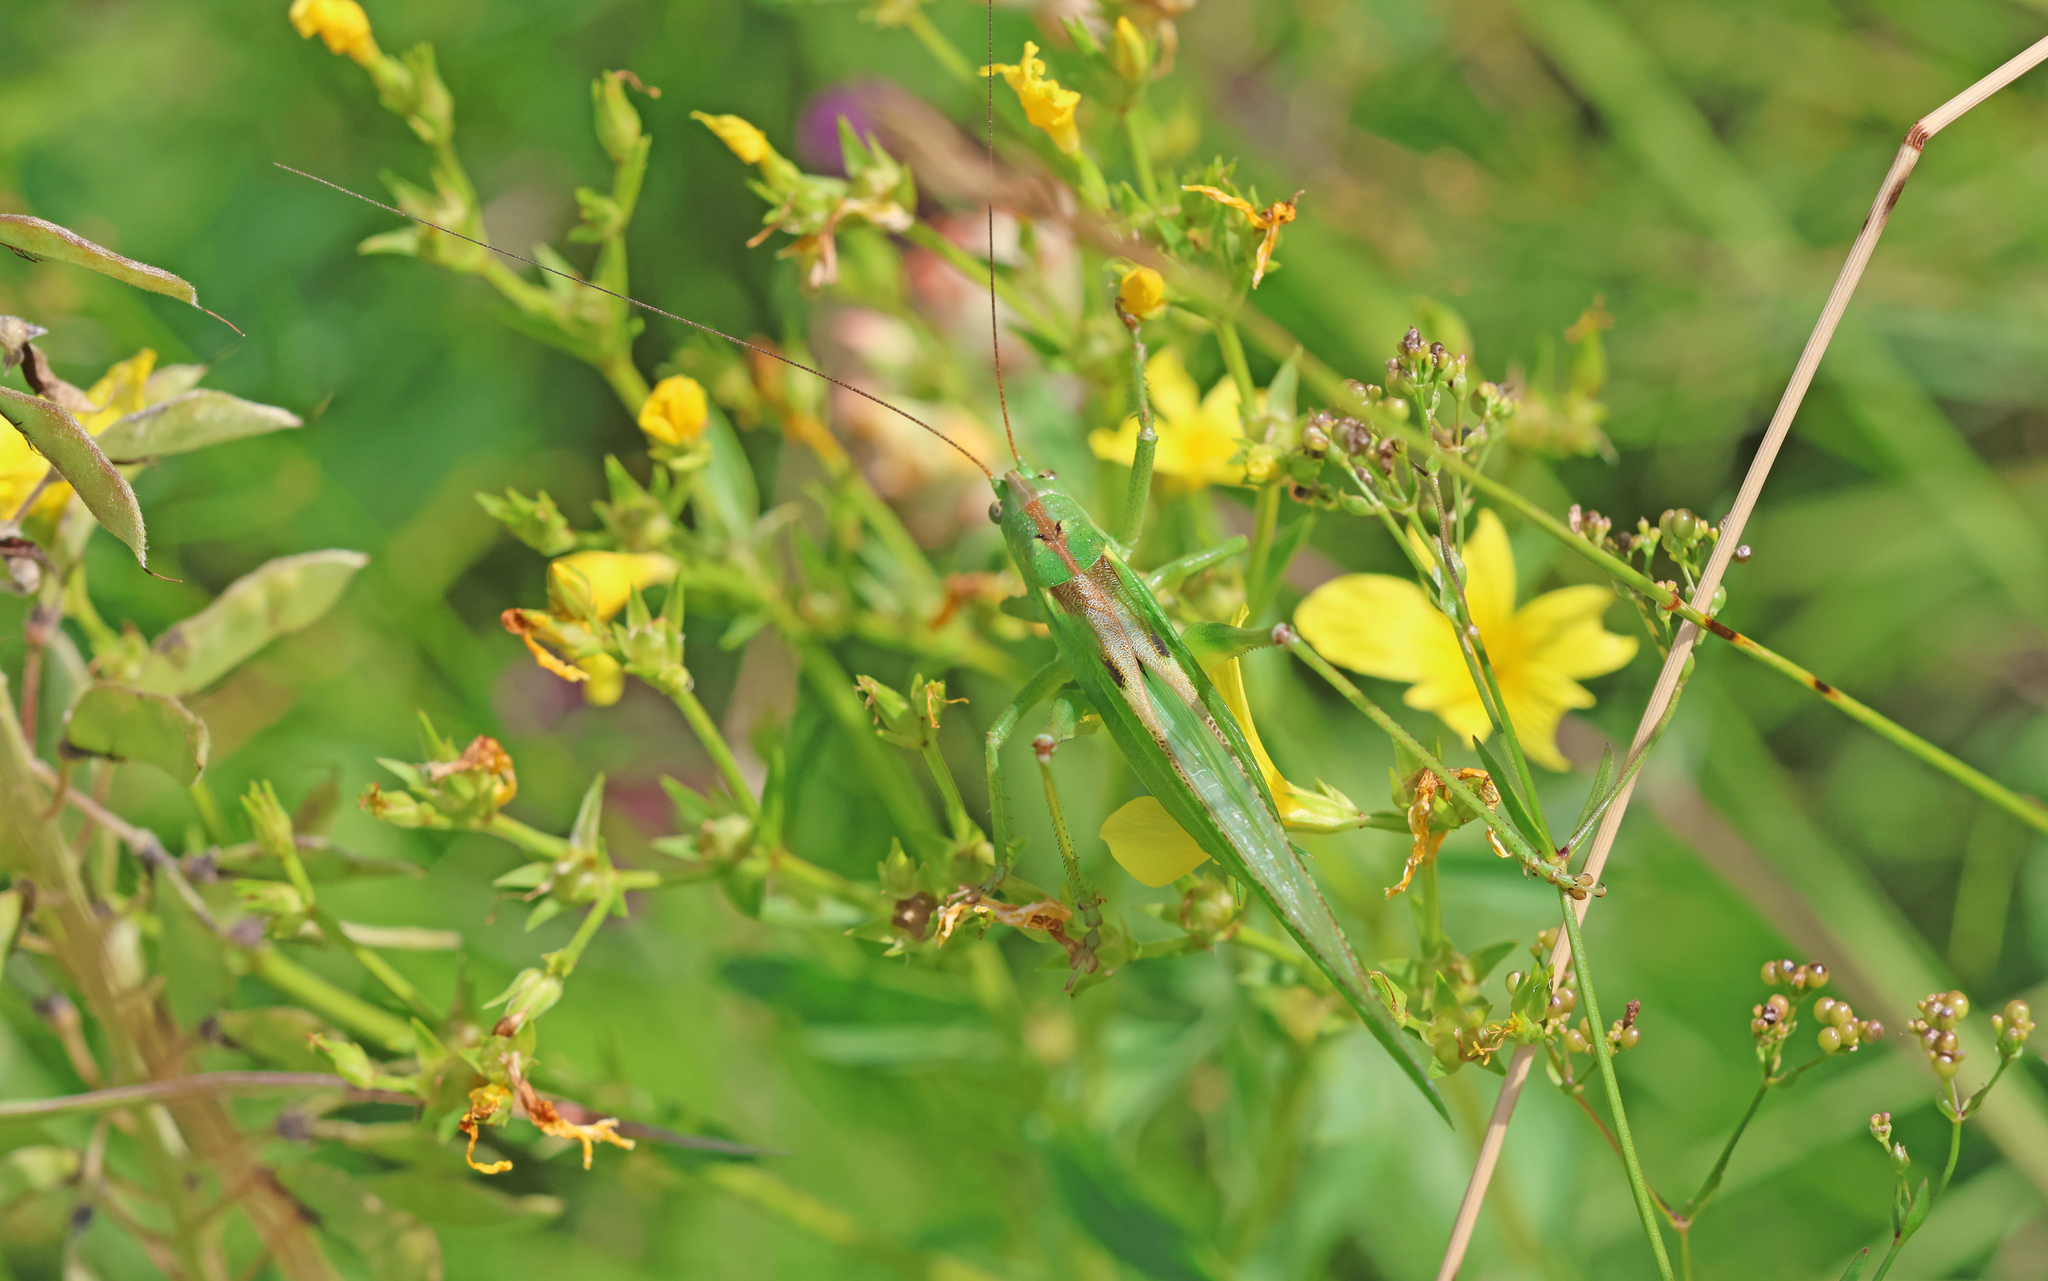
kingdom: Animalia
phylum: Arthropoda
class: Insecta
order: Orthoptera
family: Tettigoniidae
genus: Tettigonia
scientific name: Tettigonia viridissima
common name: Great green bush-cricket
